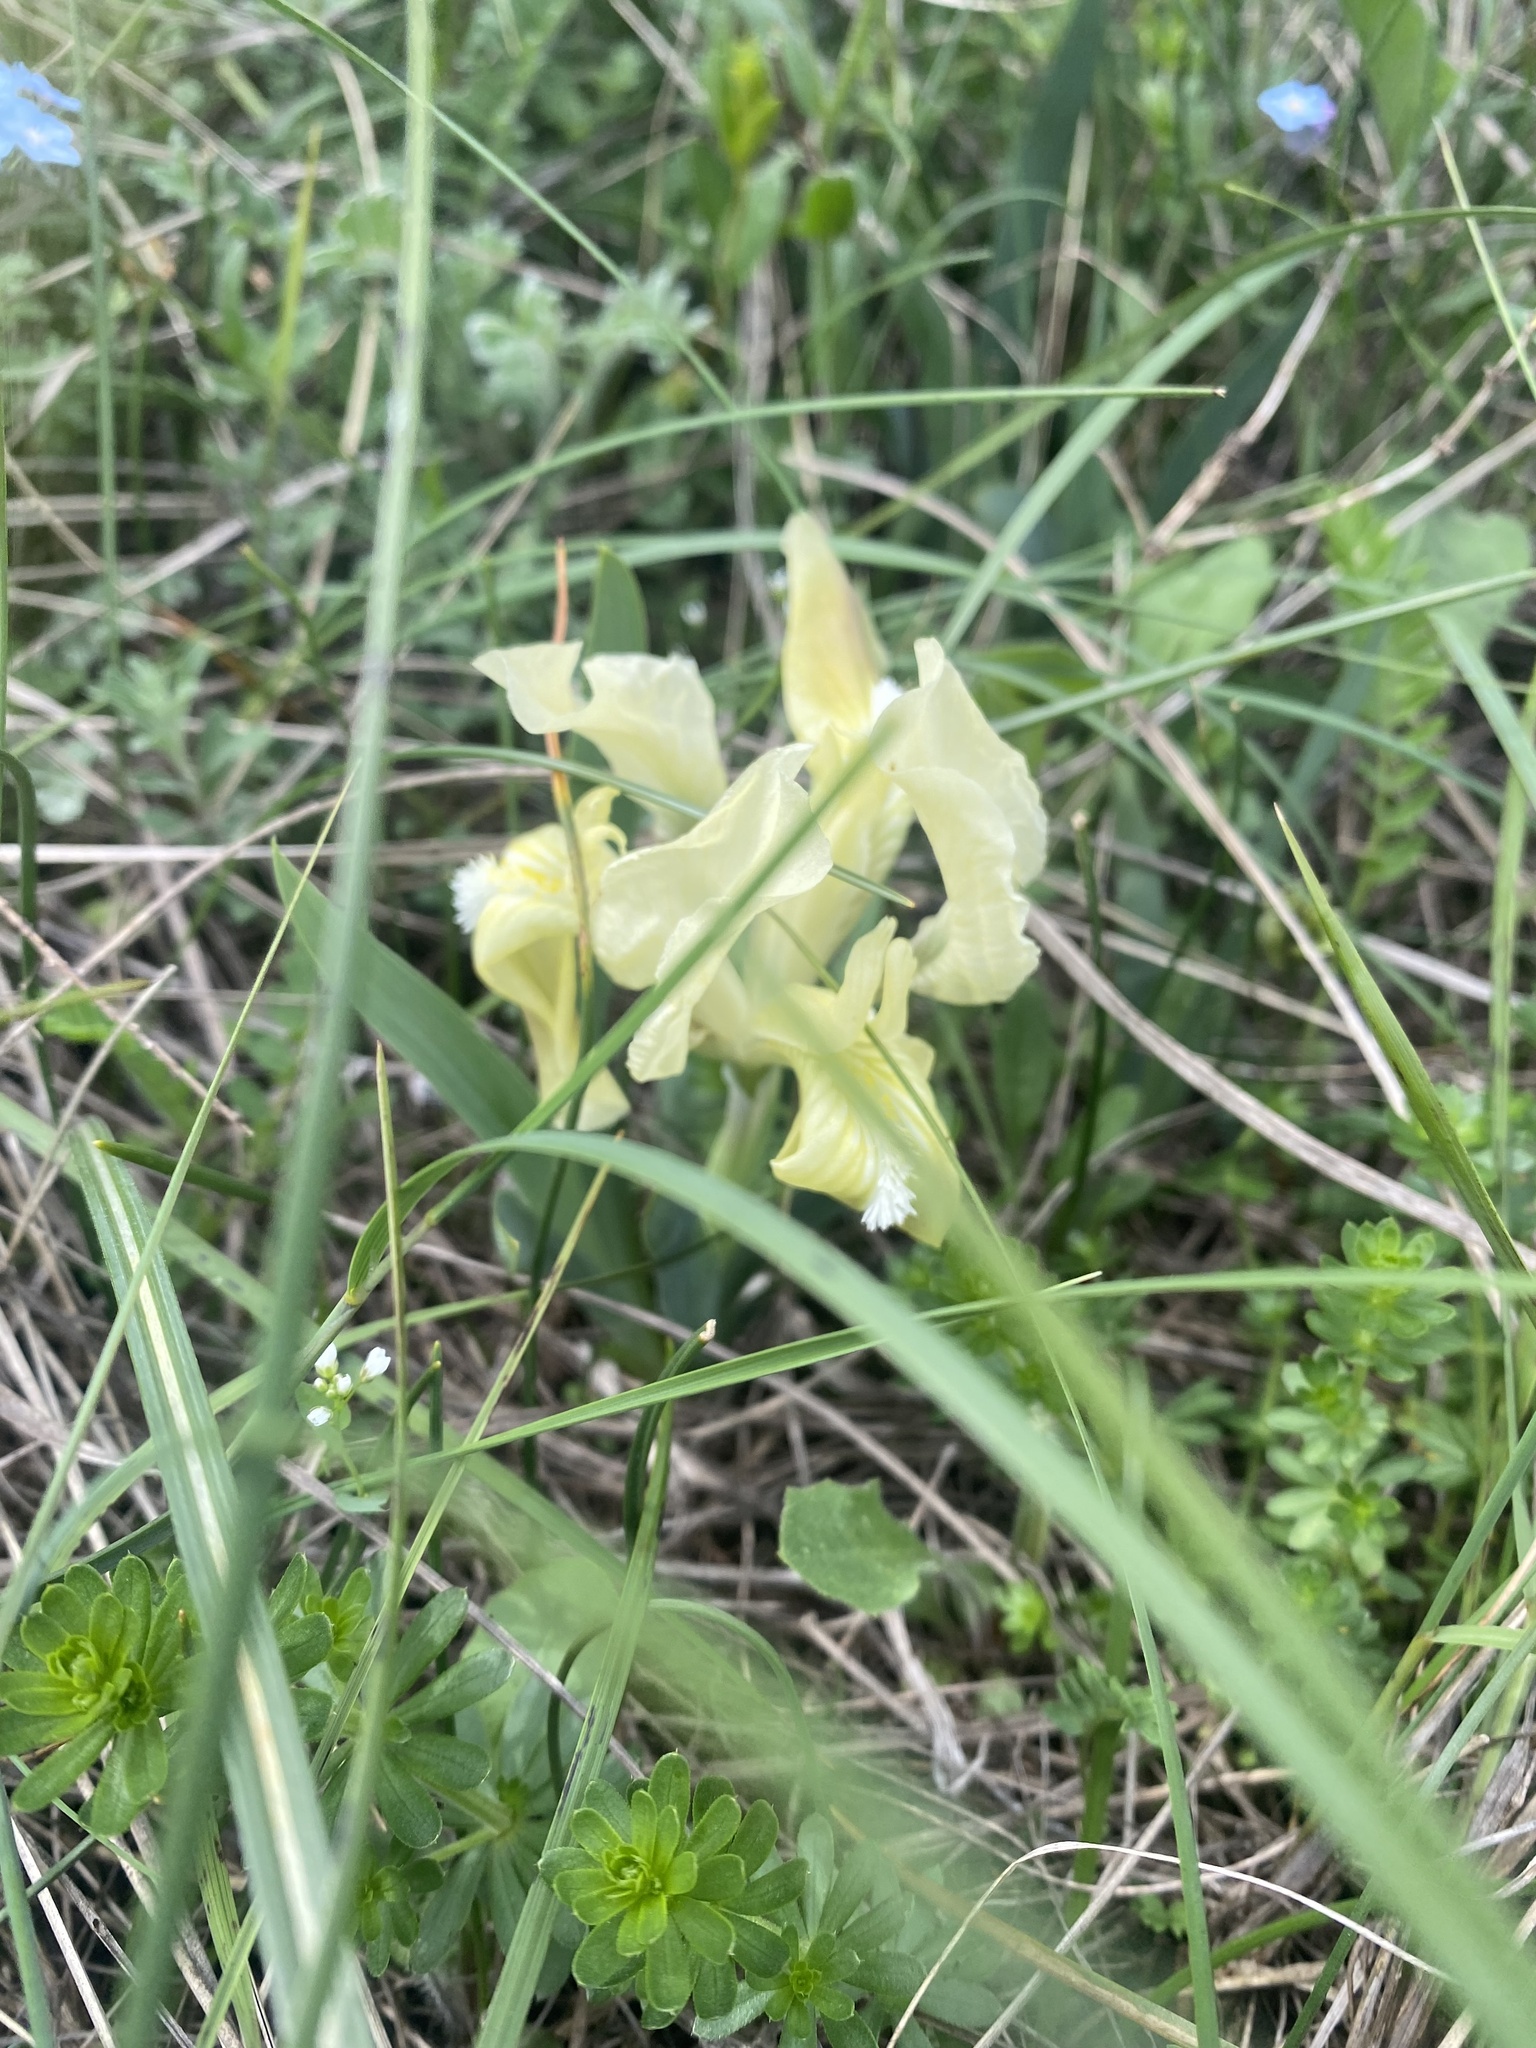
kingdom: Plantae
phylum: Tracheophyta
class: Liliopsida
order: Asparagales
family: Iridaceae
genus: Iris
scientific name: Iris pumila
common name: Dwarf iris
